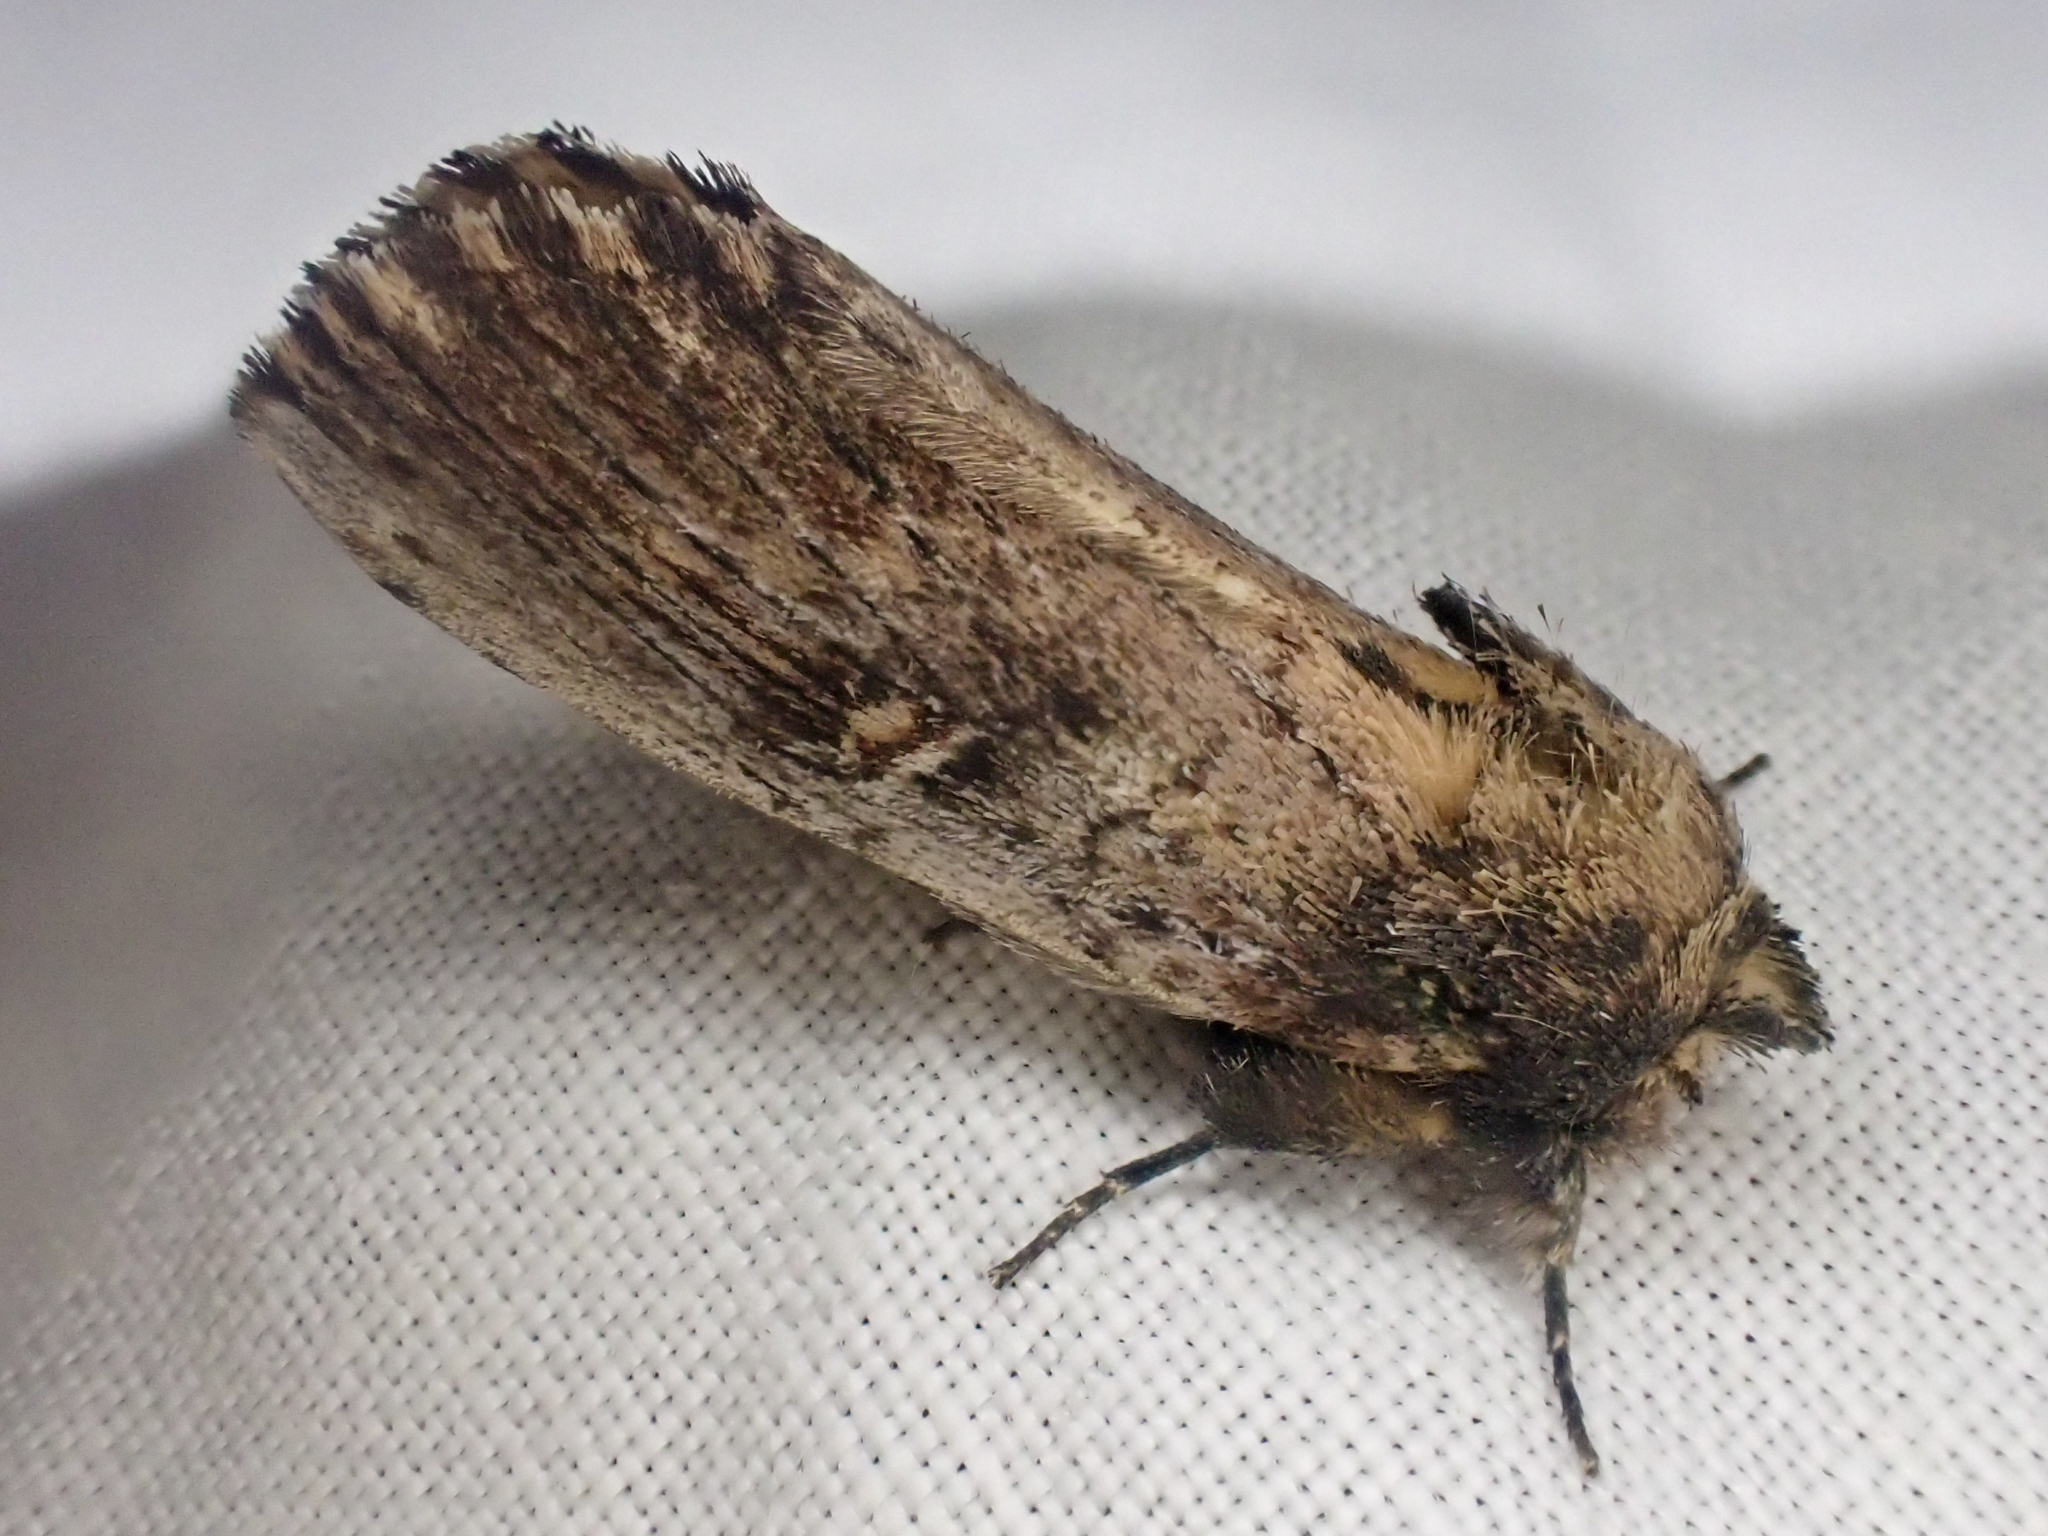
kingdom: Animalia
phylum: Arthropoda
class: Insecta
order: Lepidoptera
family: Notodontidae
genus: Schizura
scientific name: Schizura ipomaeae
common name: Morning-glory prominent
